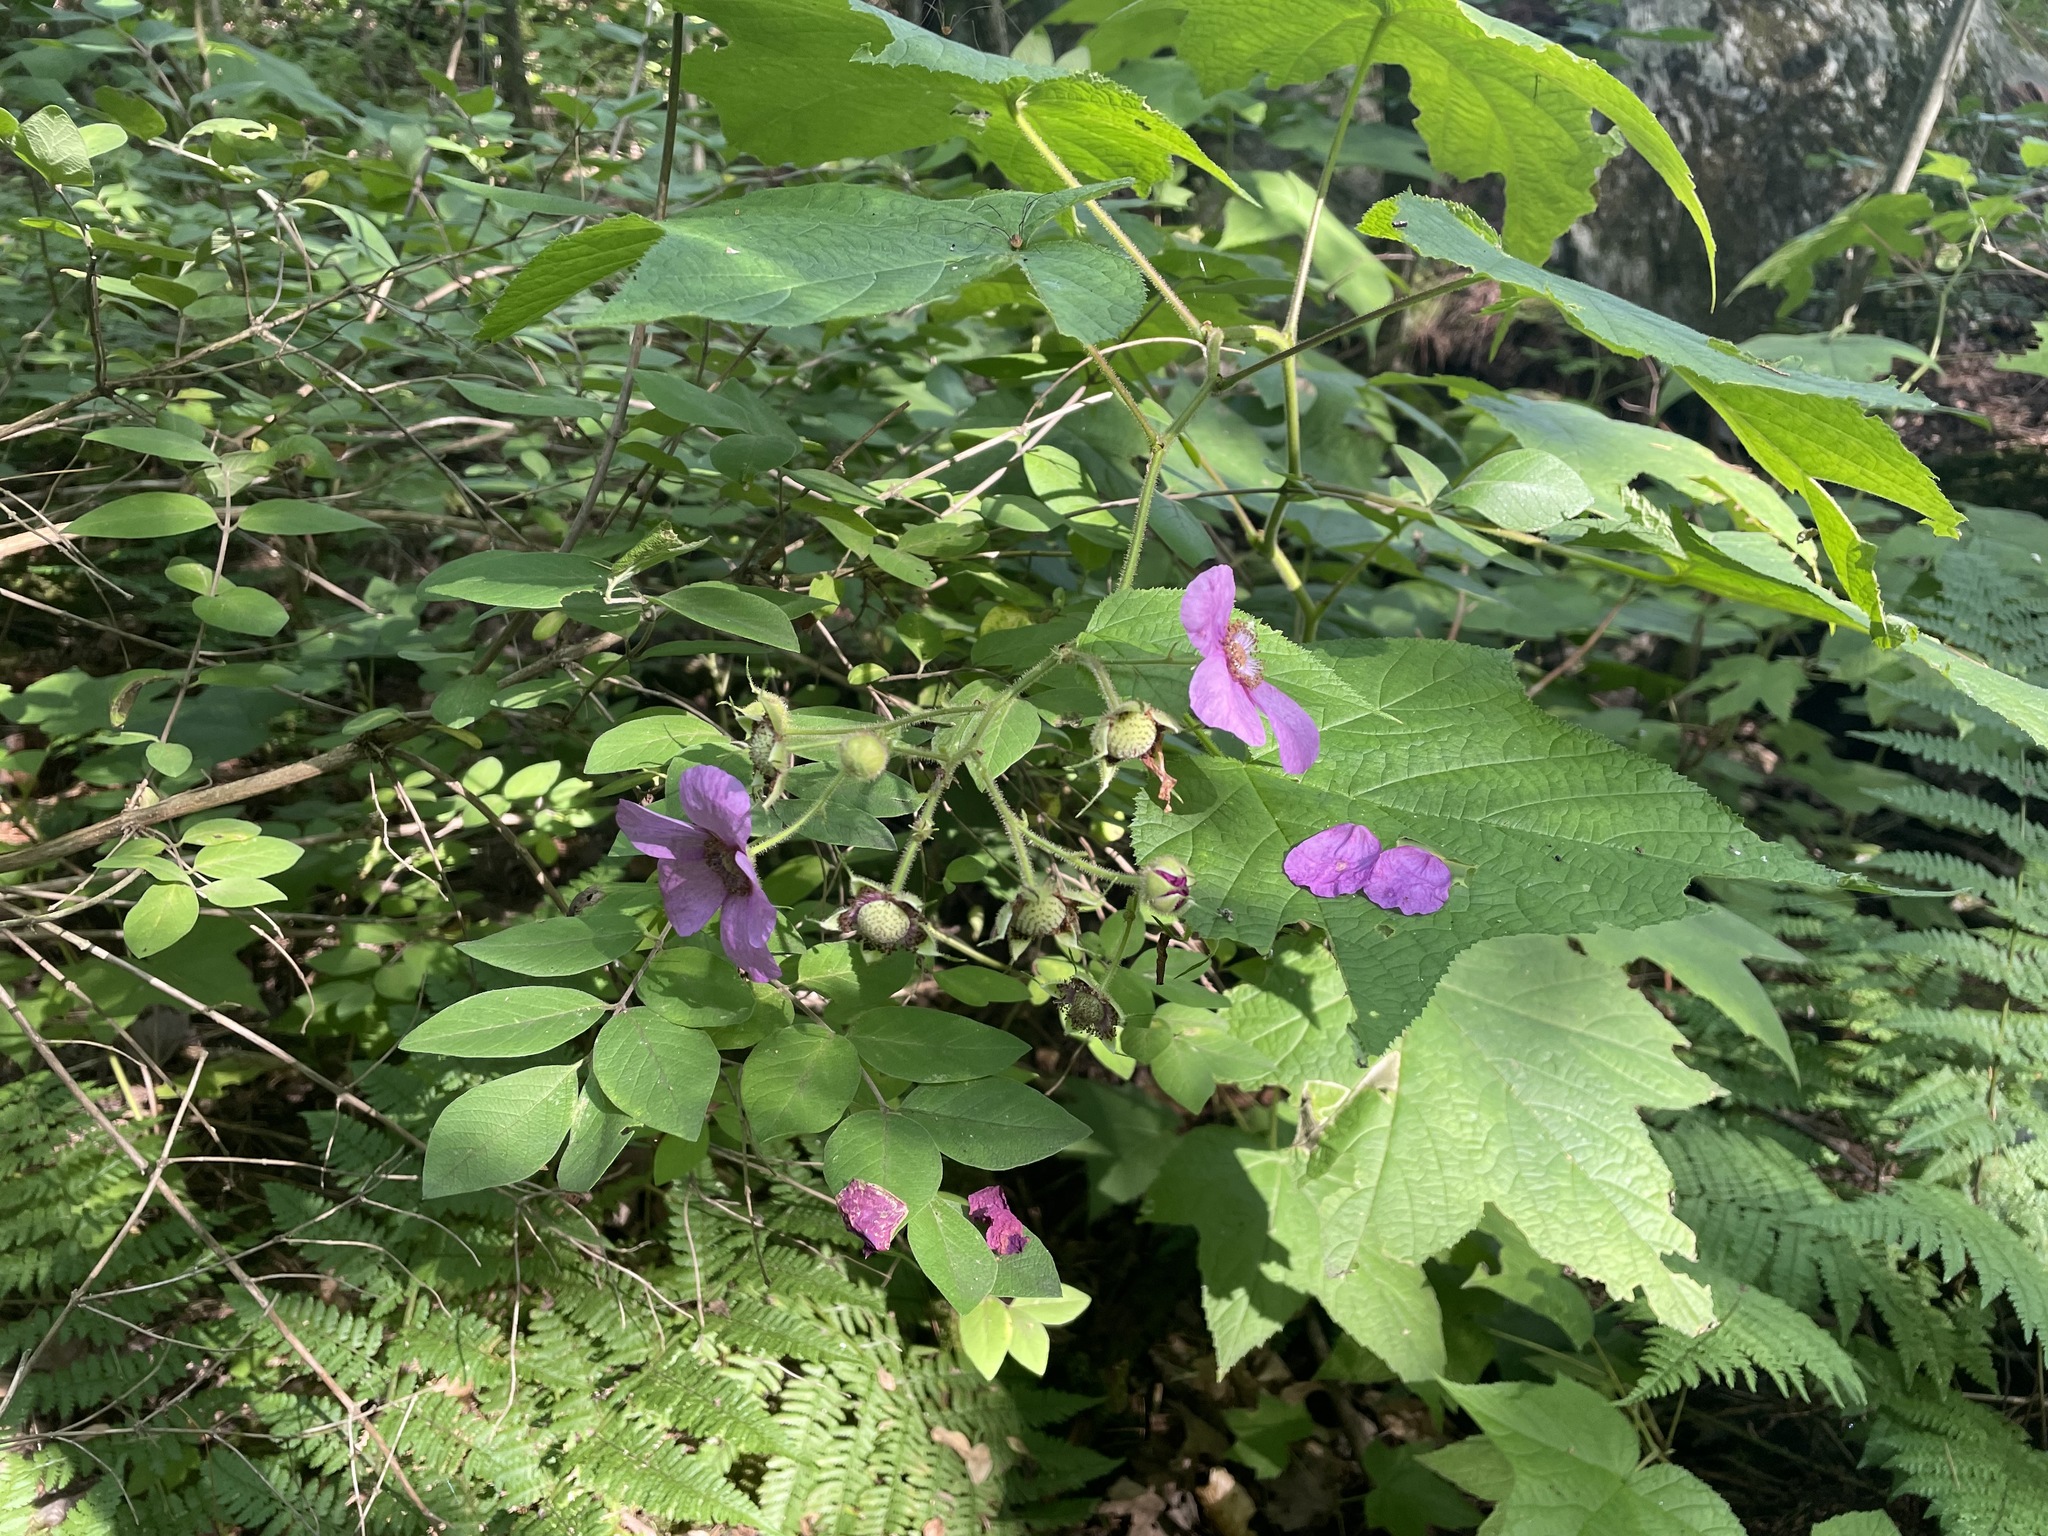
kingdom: Plantae
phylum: Tracheophyta
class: Magnoliopsida
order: Rosales
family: Rosaceae
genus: Rubus
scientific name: Rubus odoratus
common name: Purple-flowered raspberry
